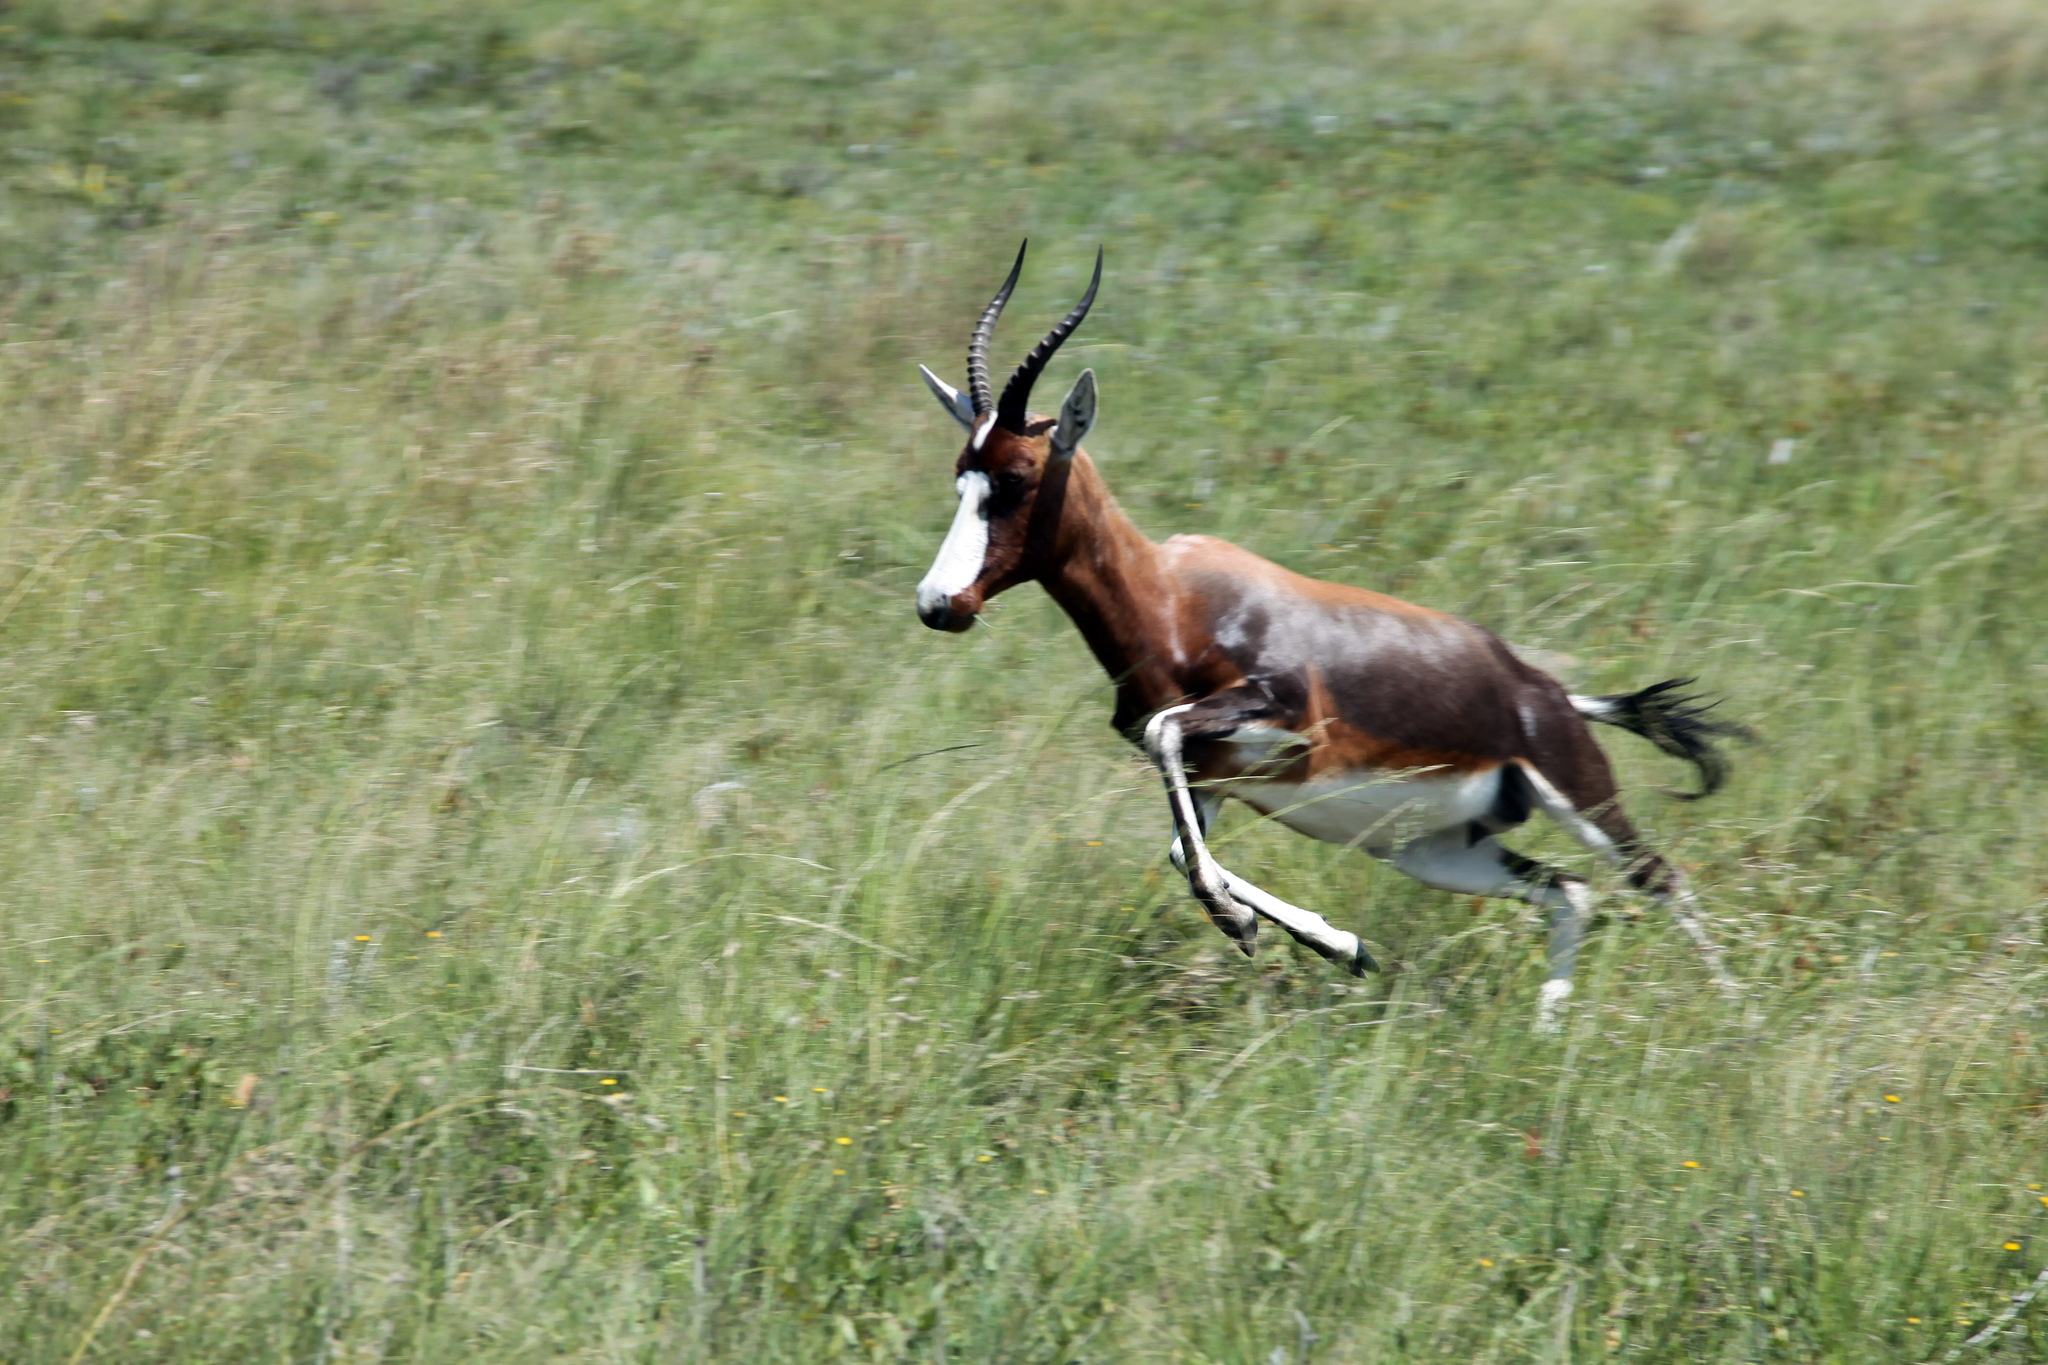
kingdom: Animalia
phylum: Chordata
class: Mammalia
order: Artiodactyla
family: Bovidae
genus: Damaliscus
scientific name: Damaliscus pygargus
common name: Bontebok
